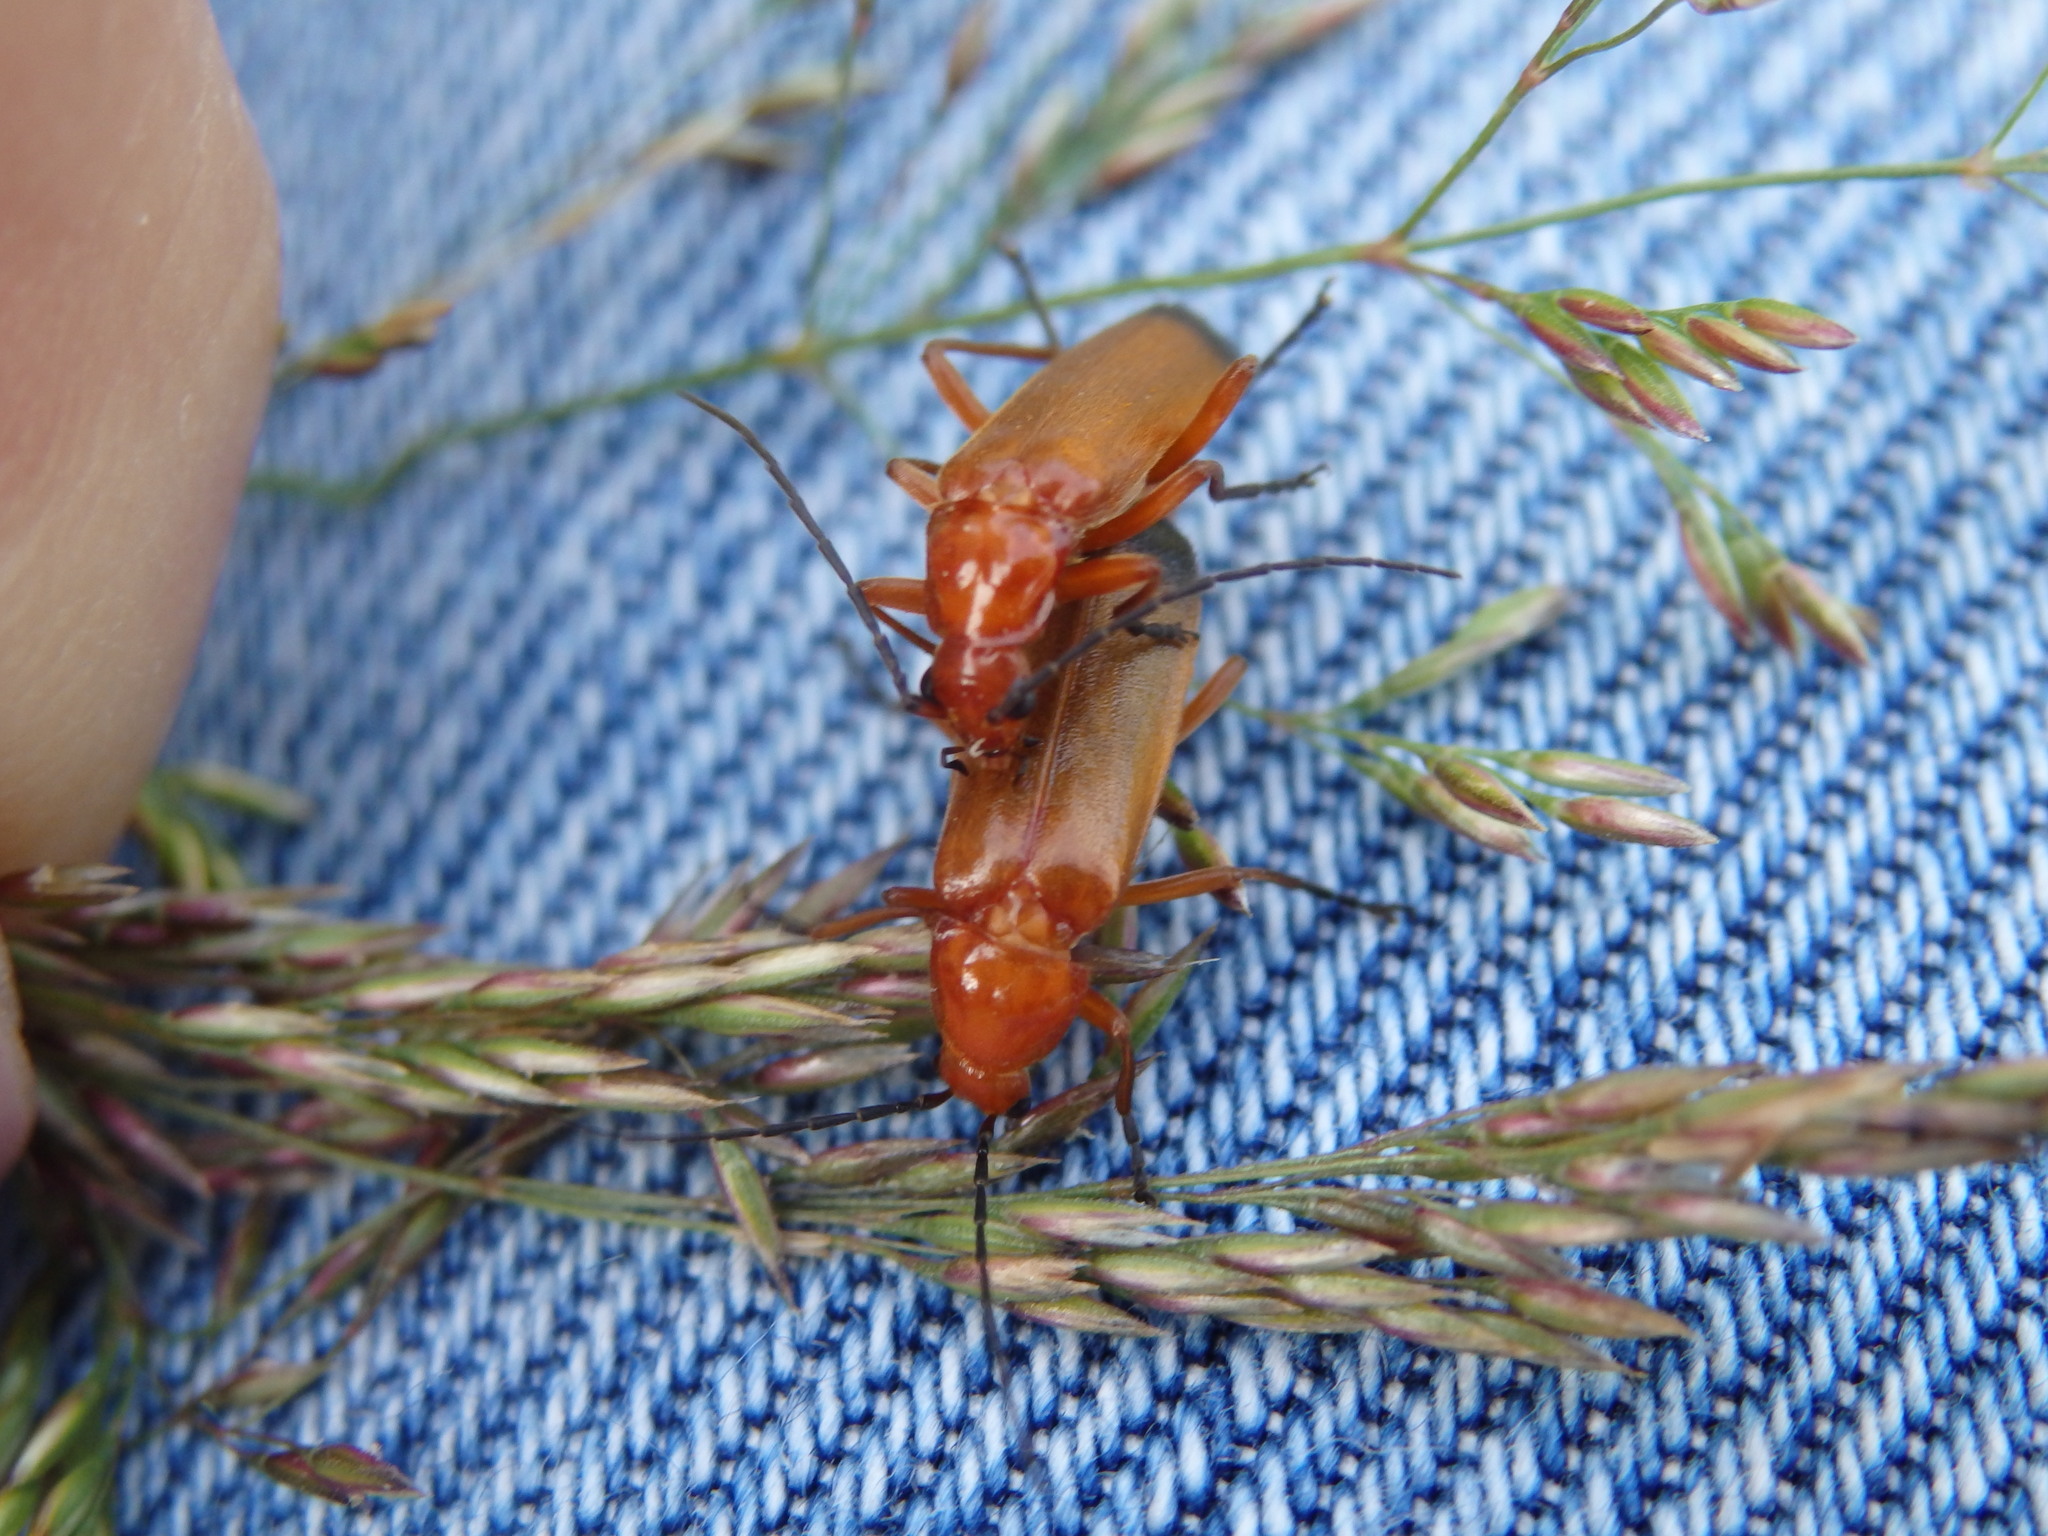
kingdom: Animalia
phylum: Arthropoda
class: Insecta
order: Coleoptera
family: Cantharidae
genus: Rhagonycha
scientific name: Rhagonycha fulva
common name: Common red soldier beetle
